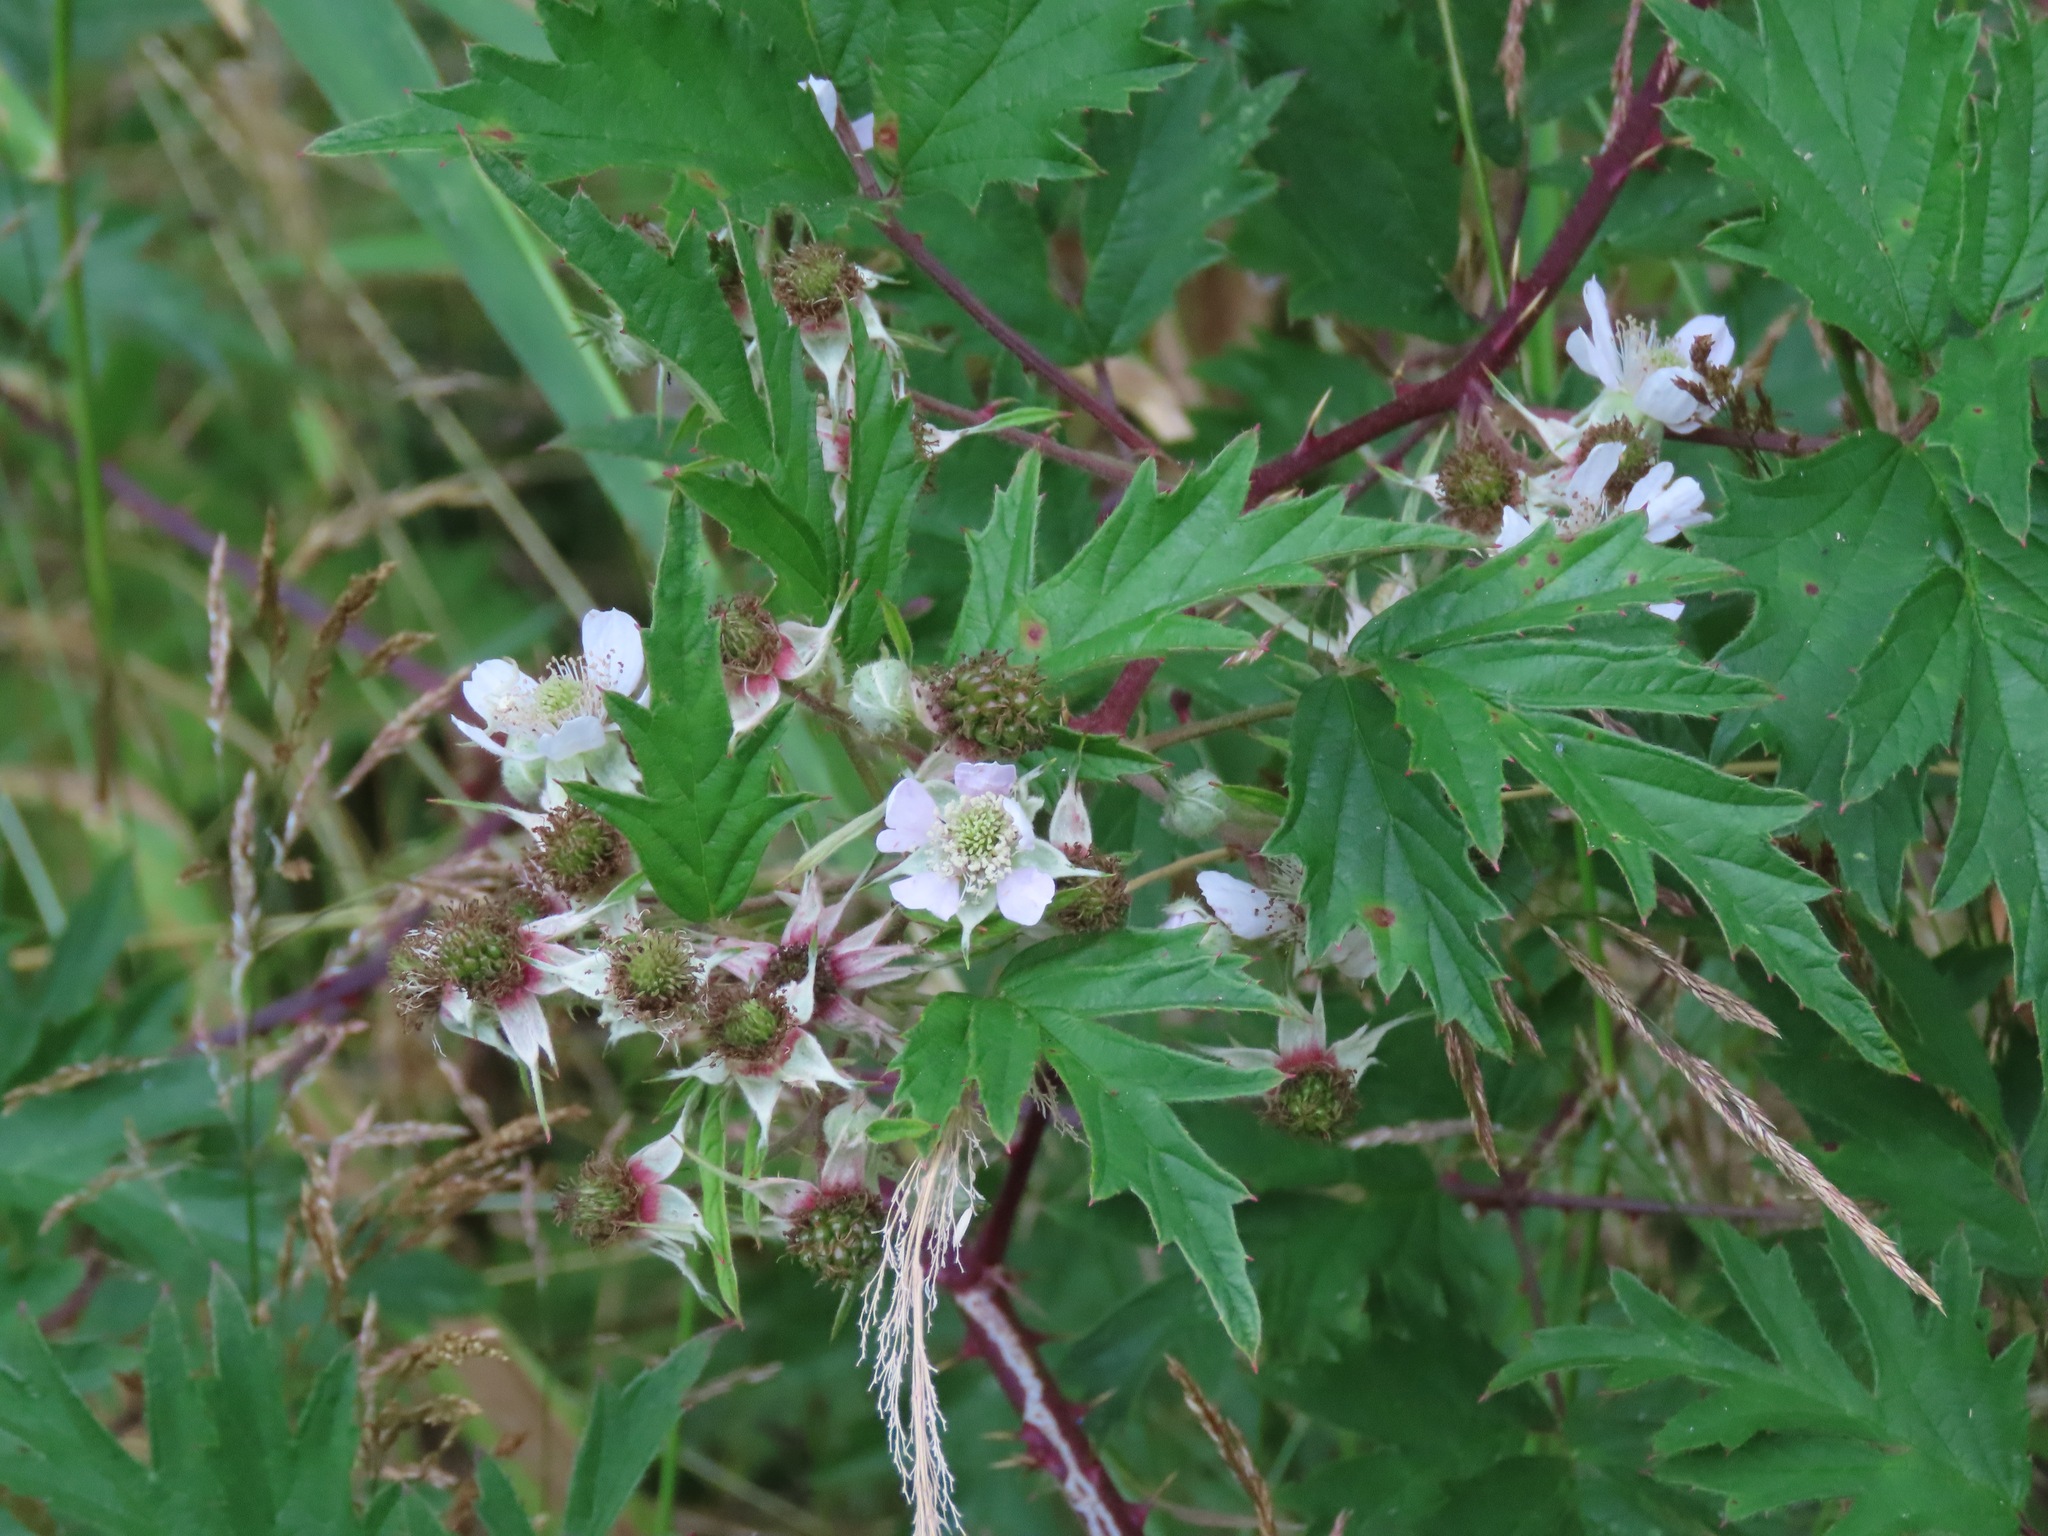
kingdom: Plantae
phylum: Tracheophyta
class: Magnoliopsida
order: Rosales
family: Rosaceae
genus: Rubus
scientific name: Rubus laciniatus
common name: Evergreen blackberry
